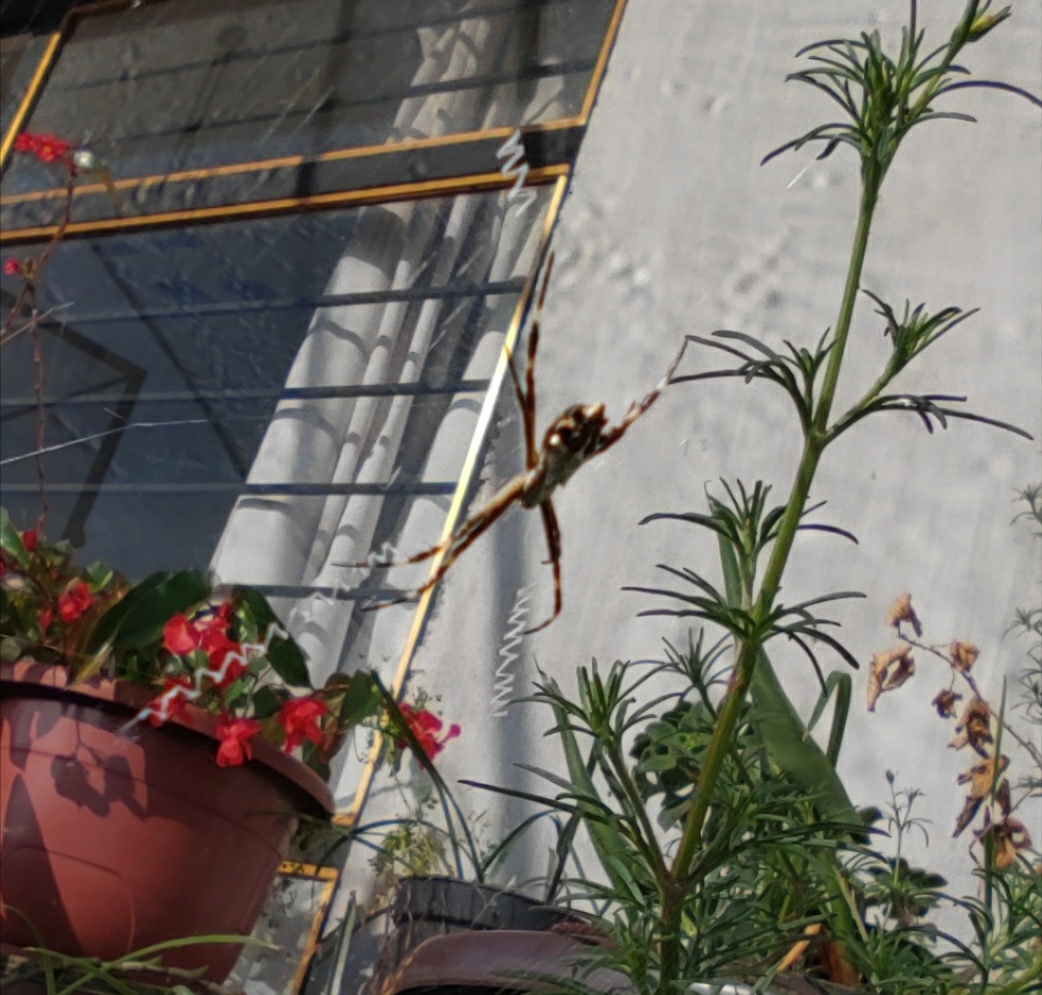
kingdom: Animalia
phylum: Arthropoda
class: Arachnida
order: Araneae
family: Araneidae
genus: Argiope
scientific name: Argiope argentata
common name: Orb weavers
